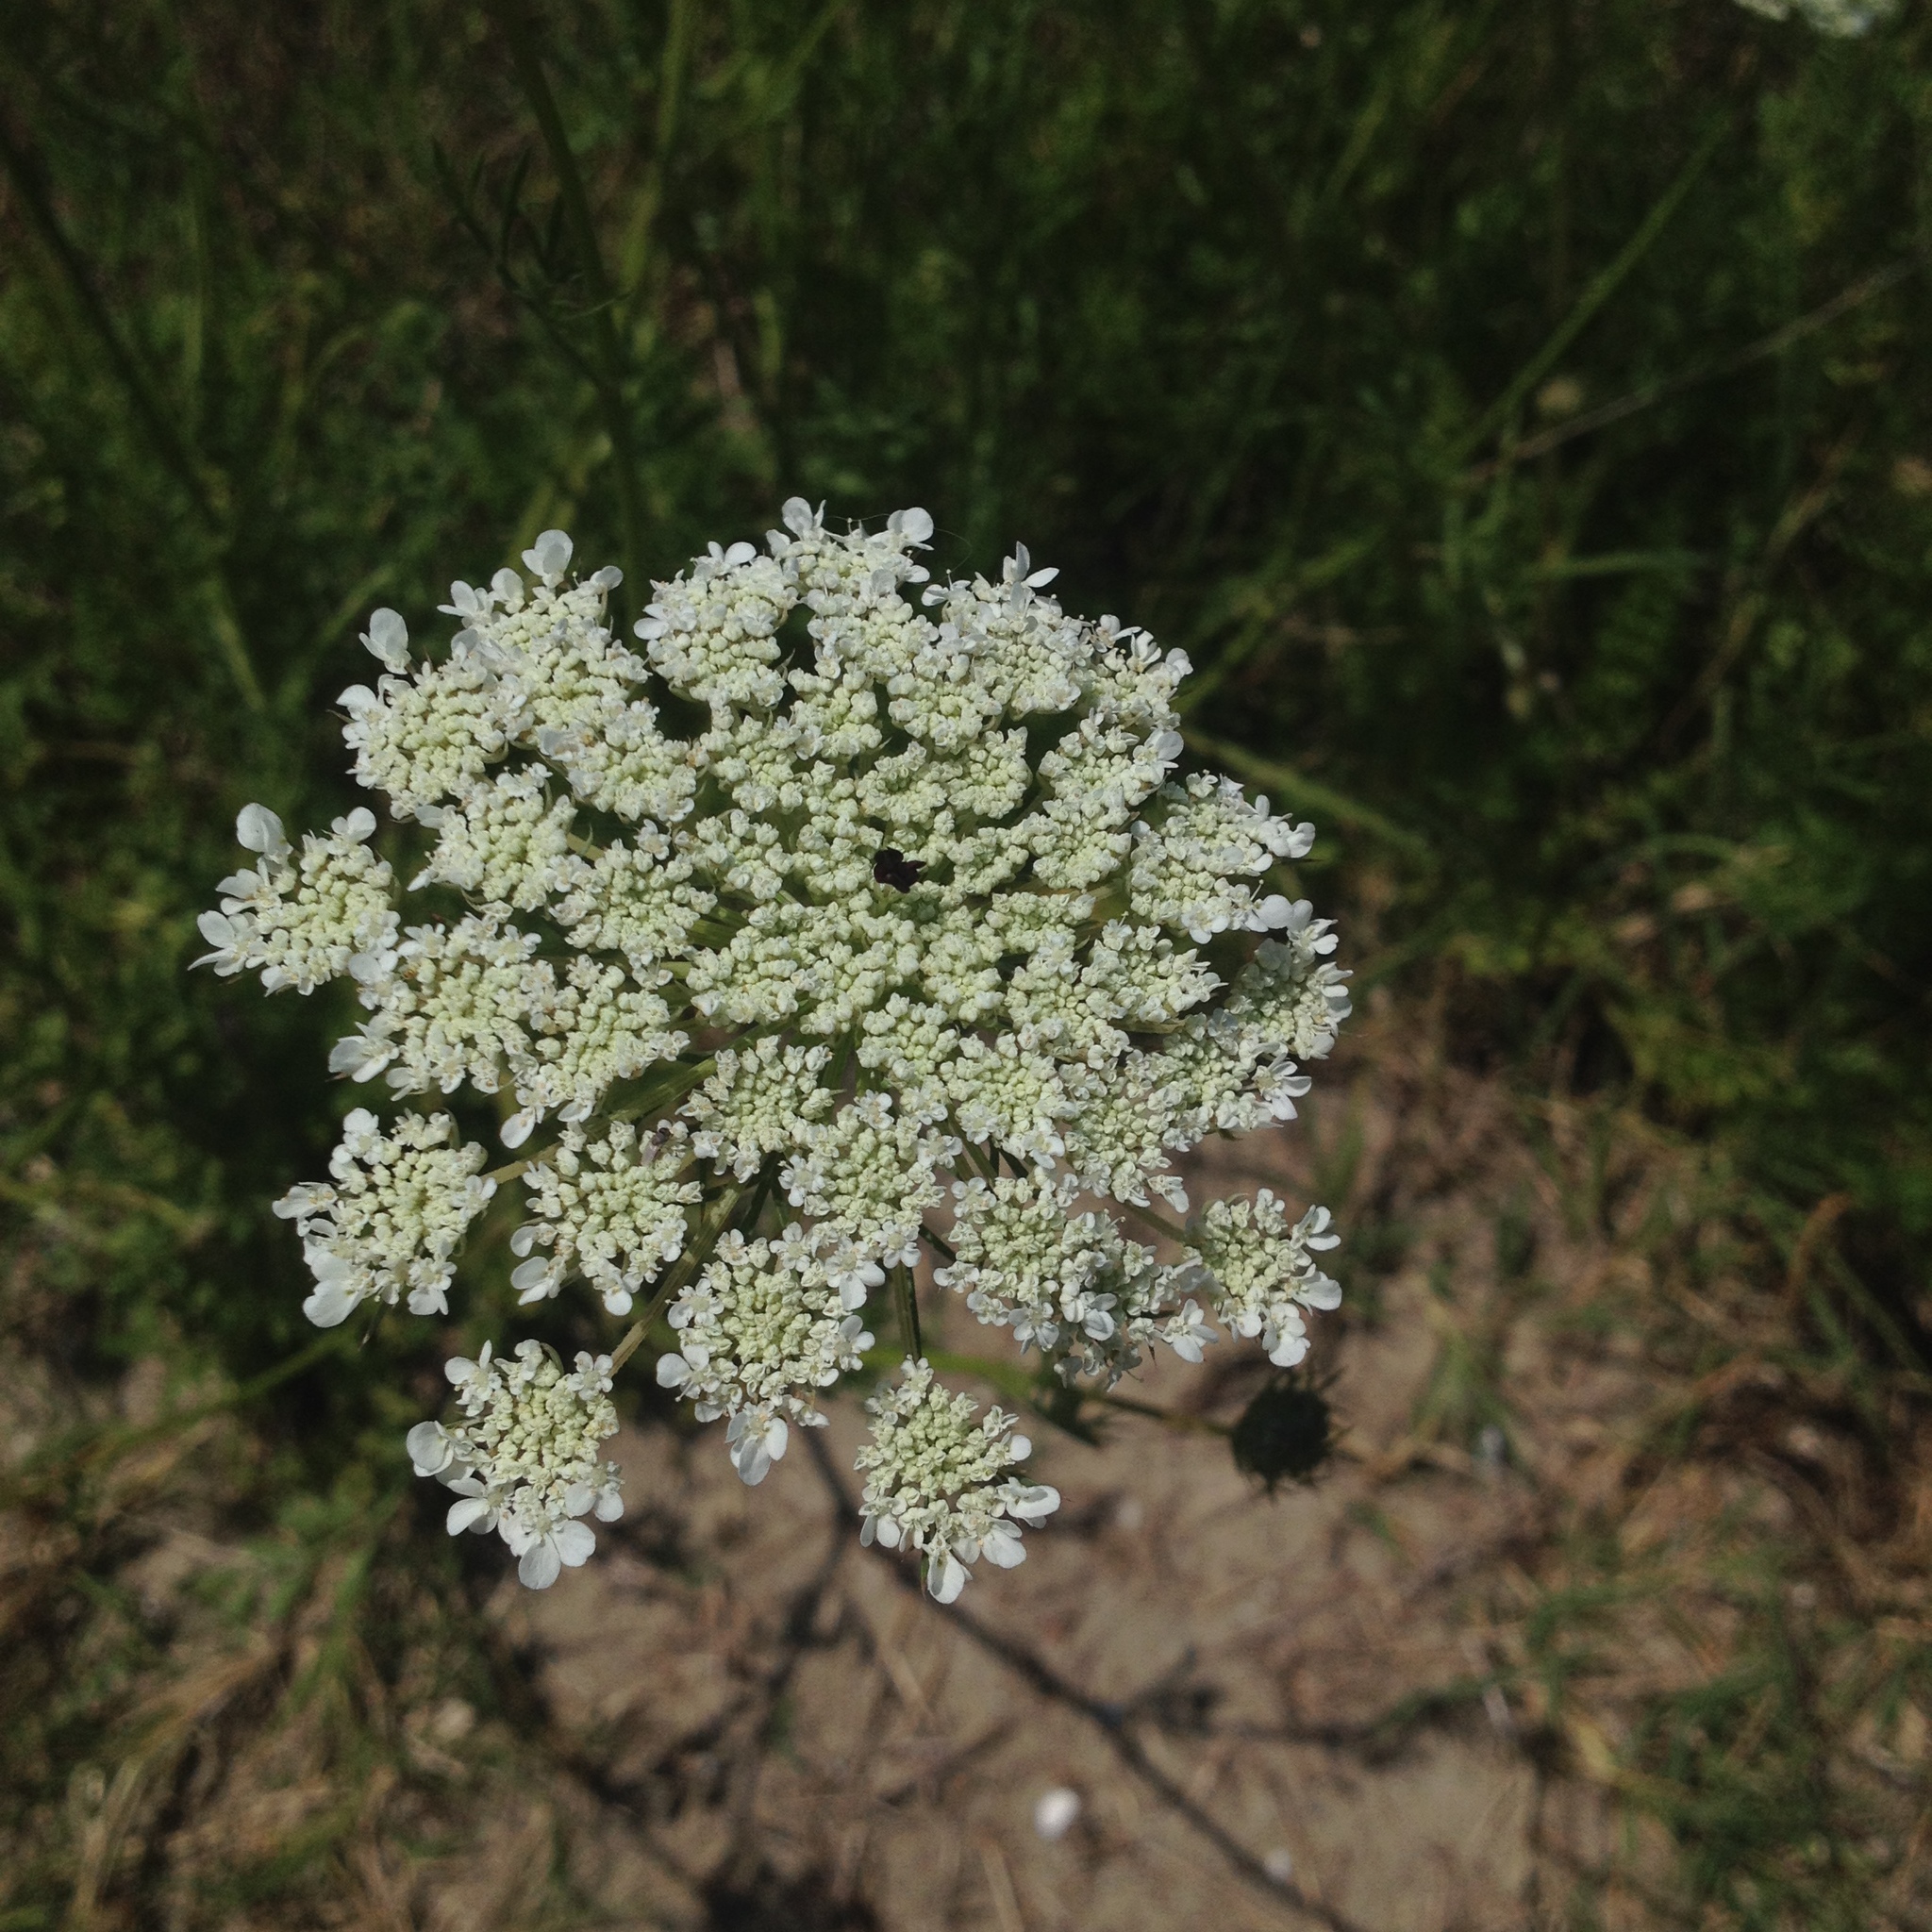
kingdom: Plantae
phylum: Tracheophyta
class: Magnoliopsida
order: Apiales
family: Apiaceae
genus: Daucus
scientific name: Daucus carota
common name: Wild carrot
